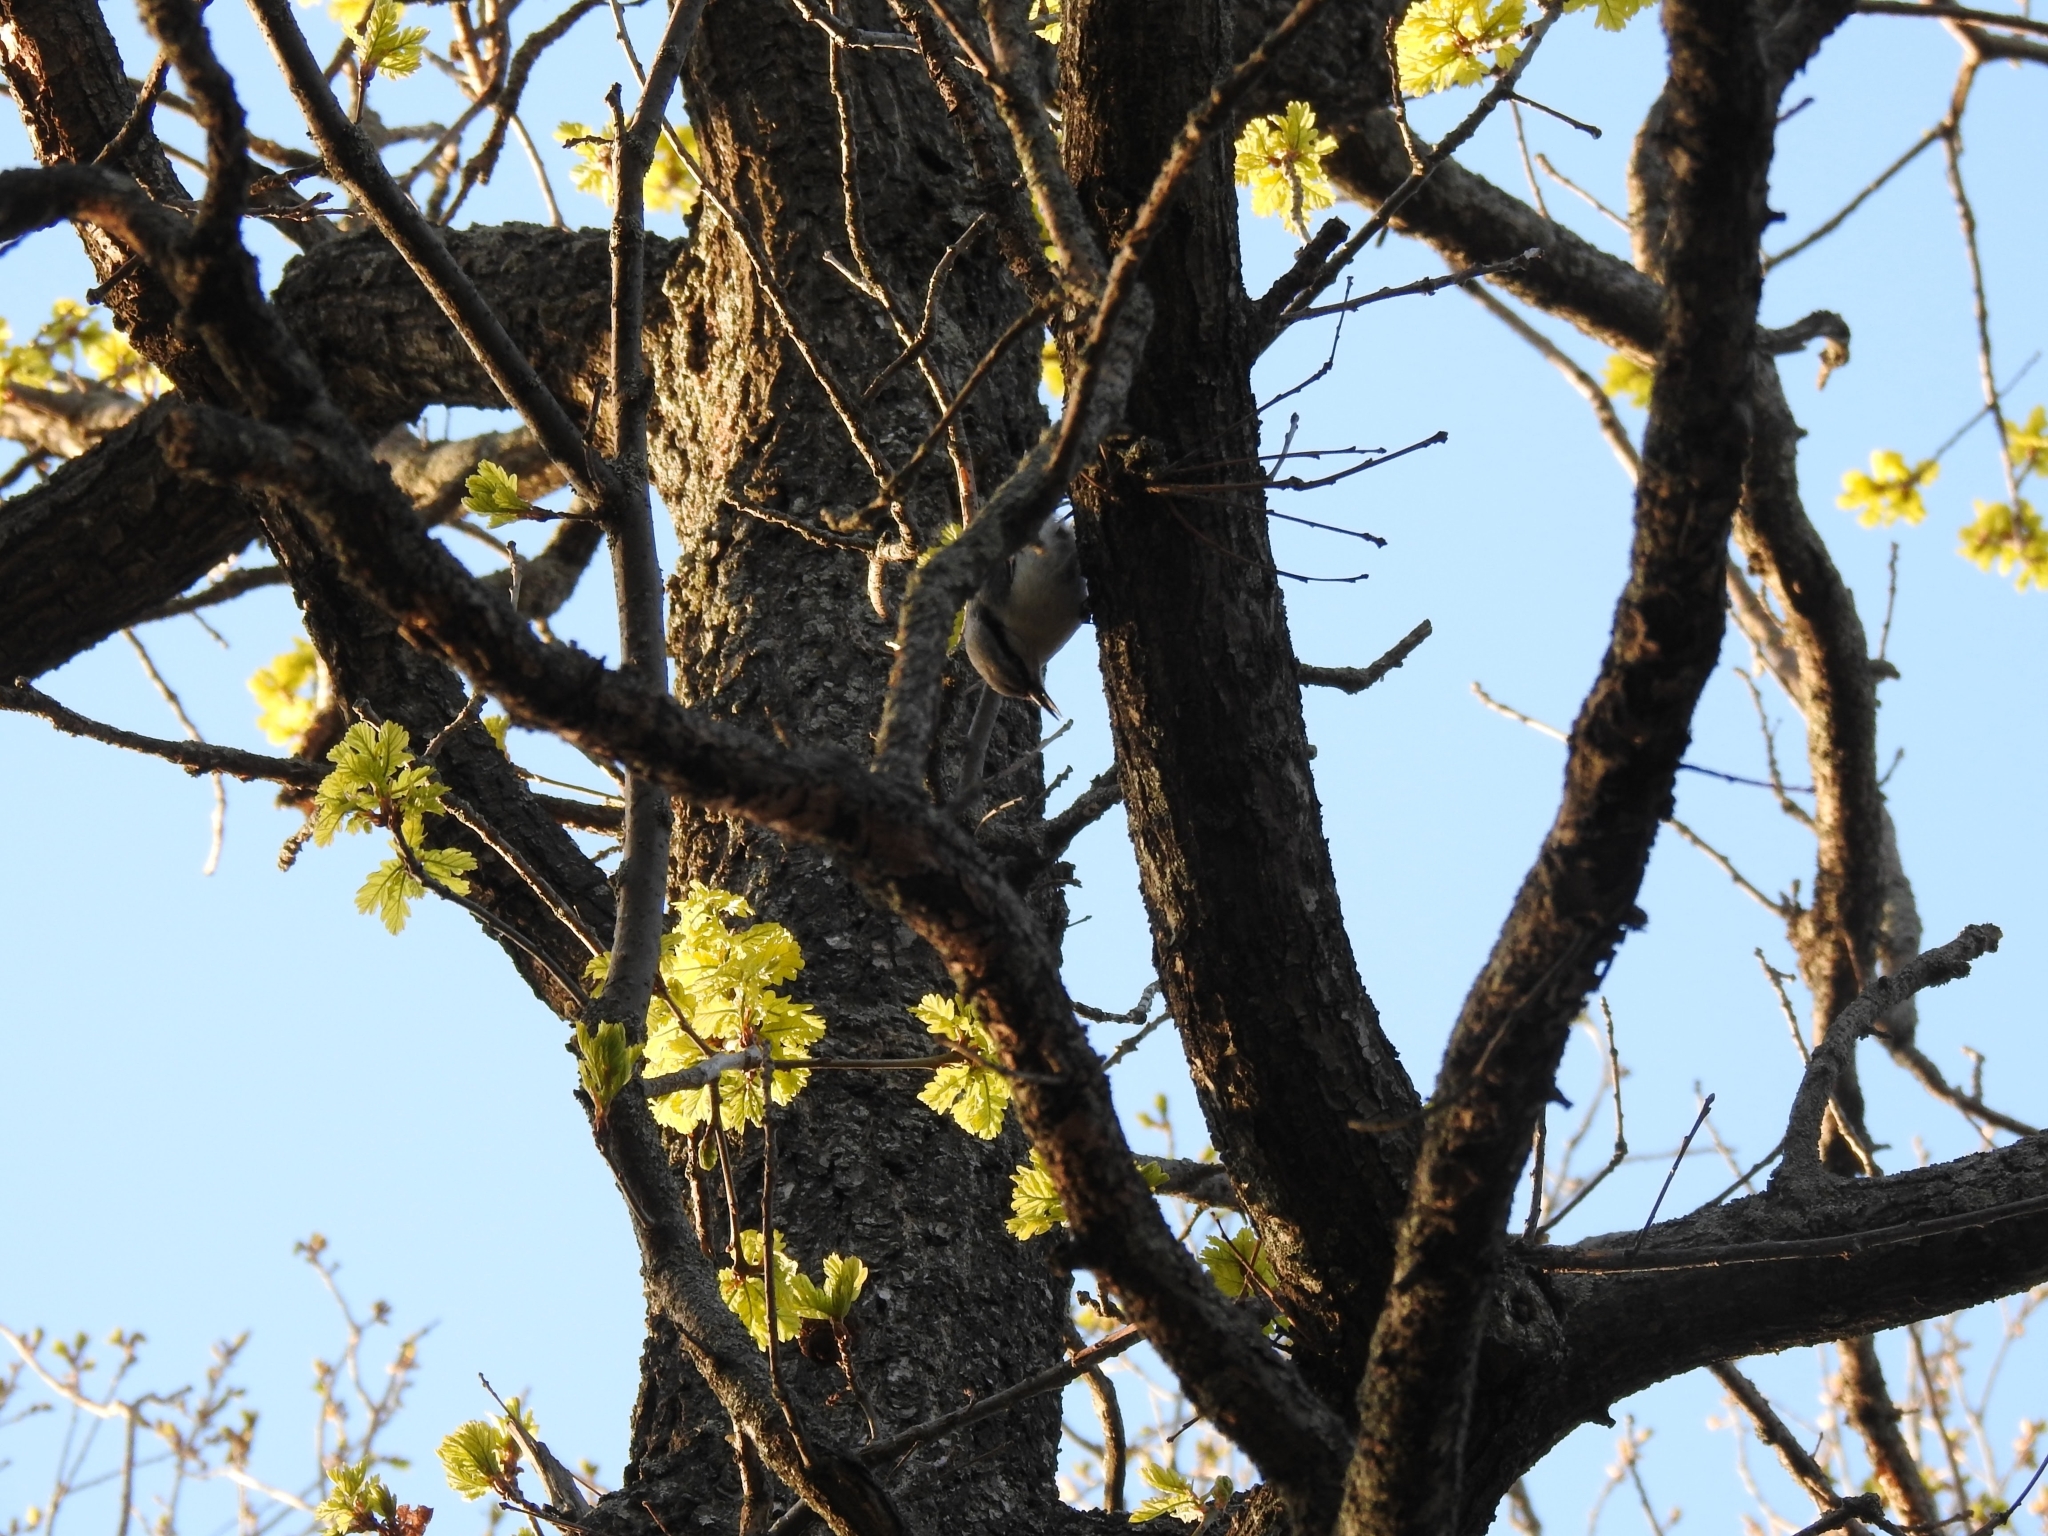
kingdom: Animalia
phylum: Chordata
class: Aves
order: Passeriformes
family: Sittidae
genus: Sitta
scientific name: Sitta europaea
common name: Eurasian nuthatch
